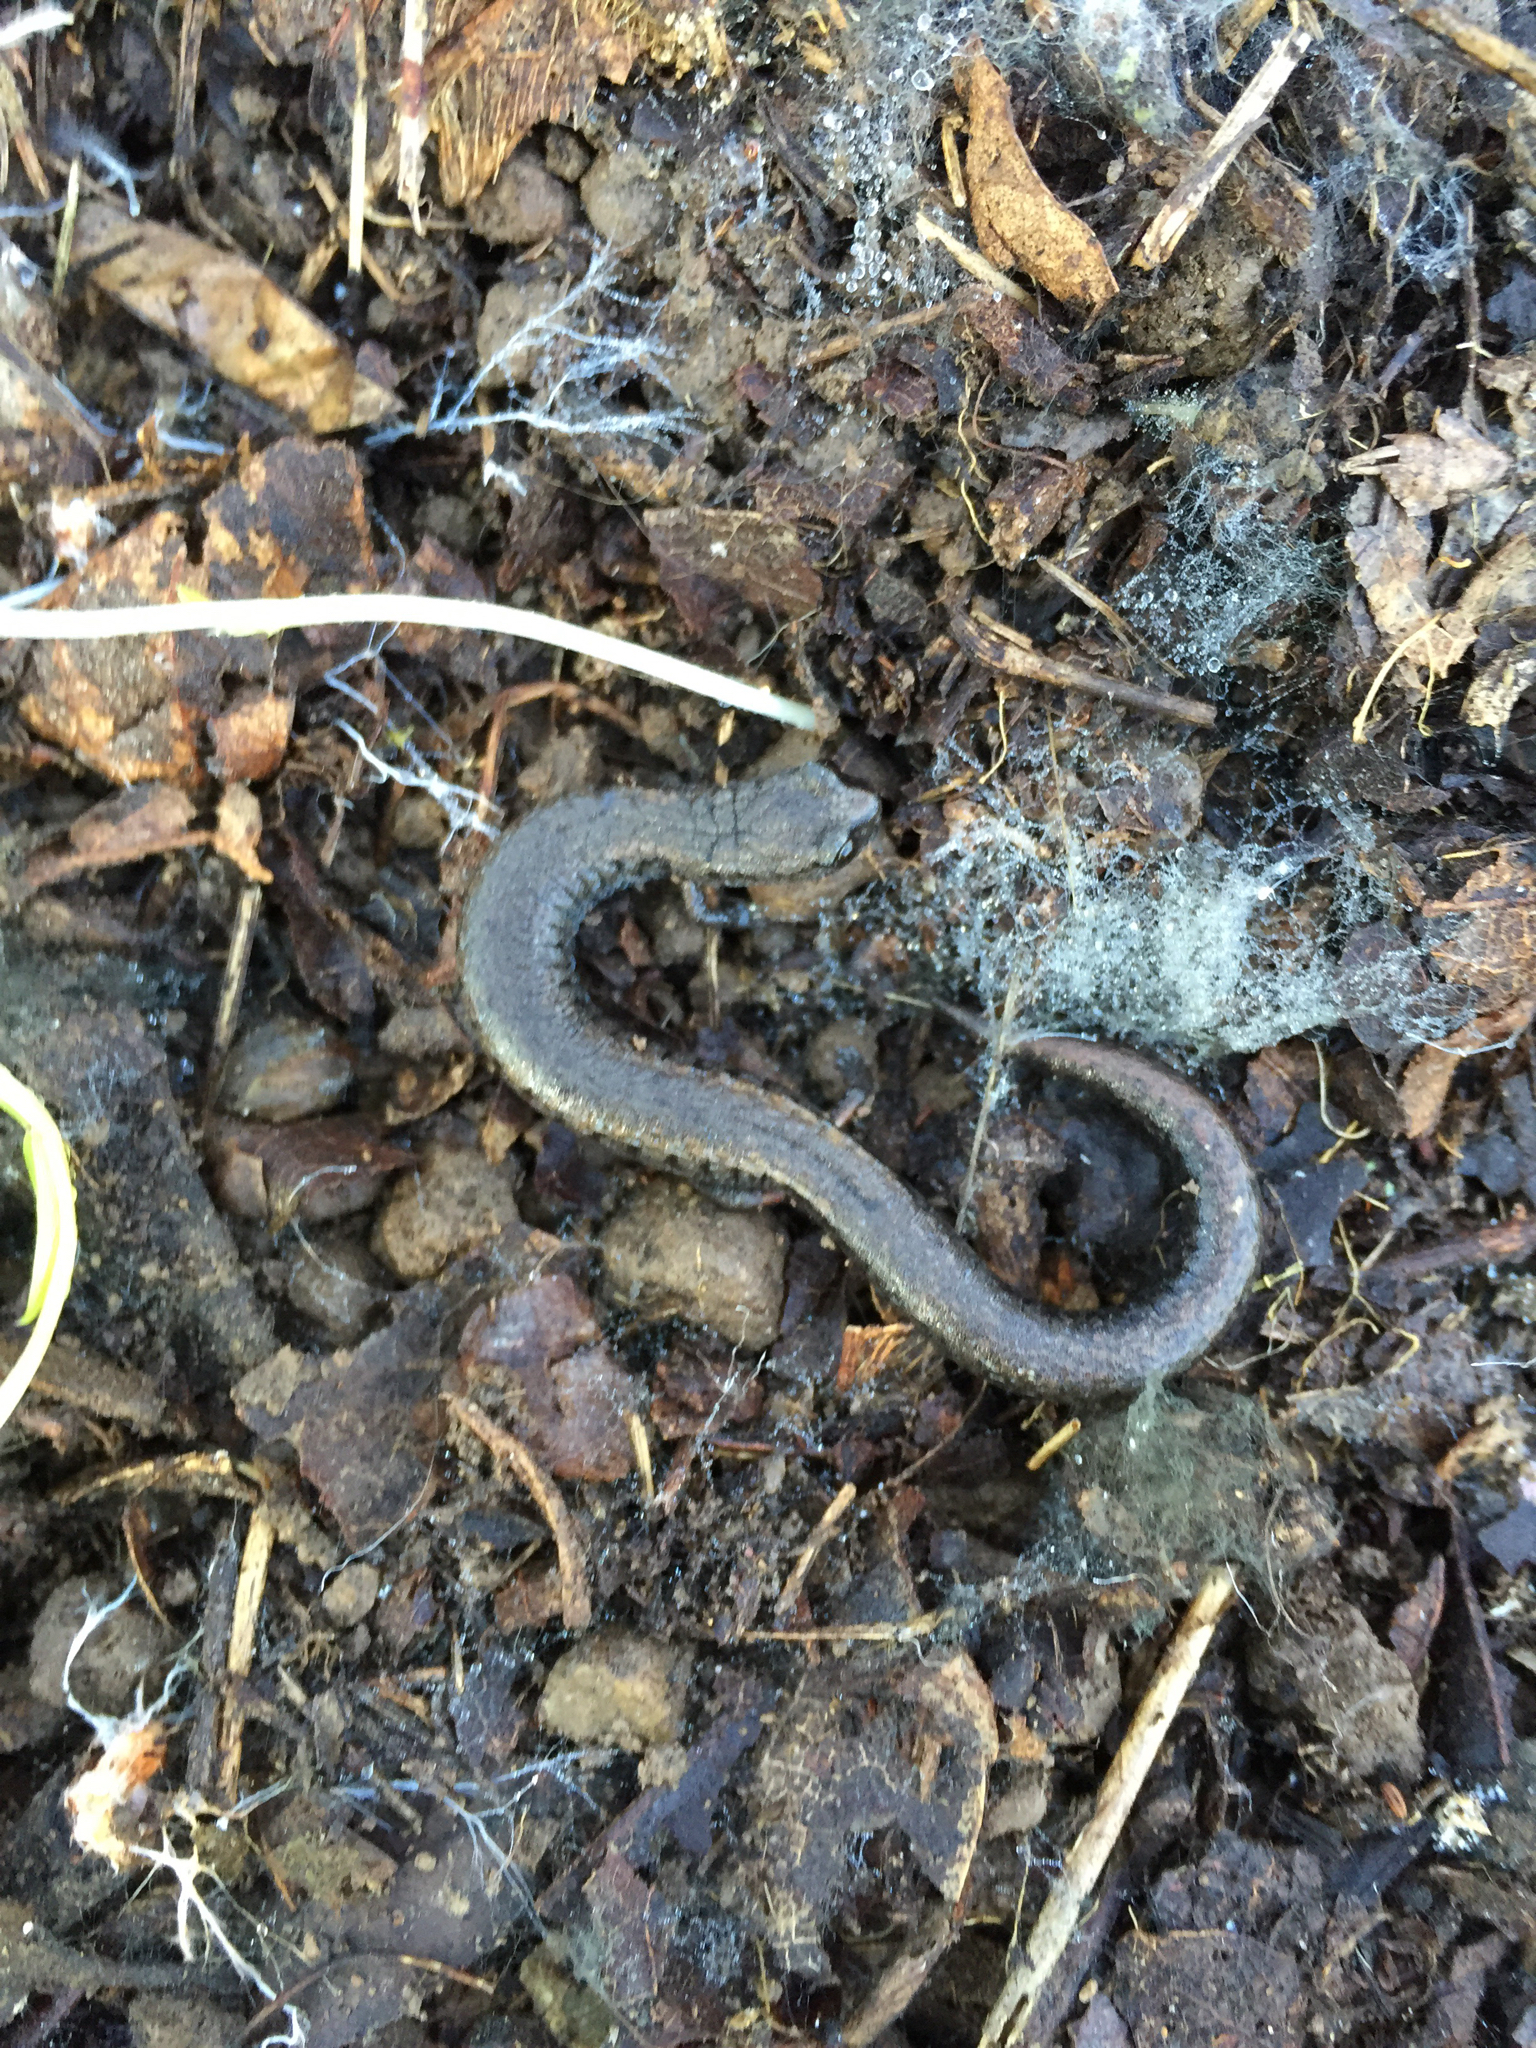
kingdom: Animalia
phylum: Chordata
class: Amphibia
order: Caudata
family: Plethodontidae
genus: Batrachoseps
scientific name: Batrachoseps attenuatus
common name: California slender salamander
